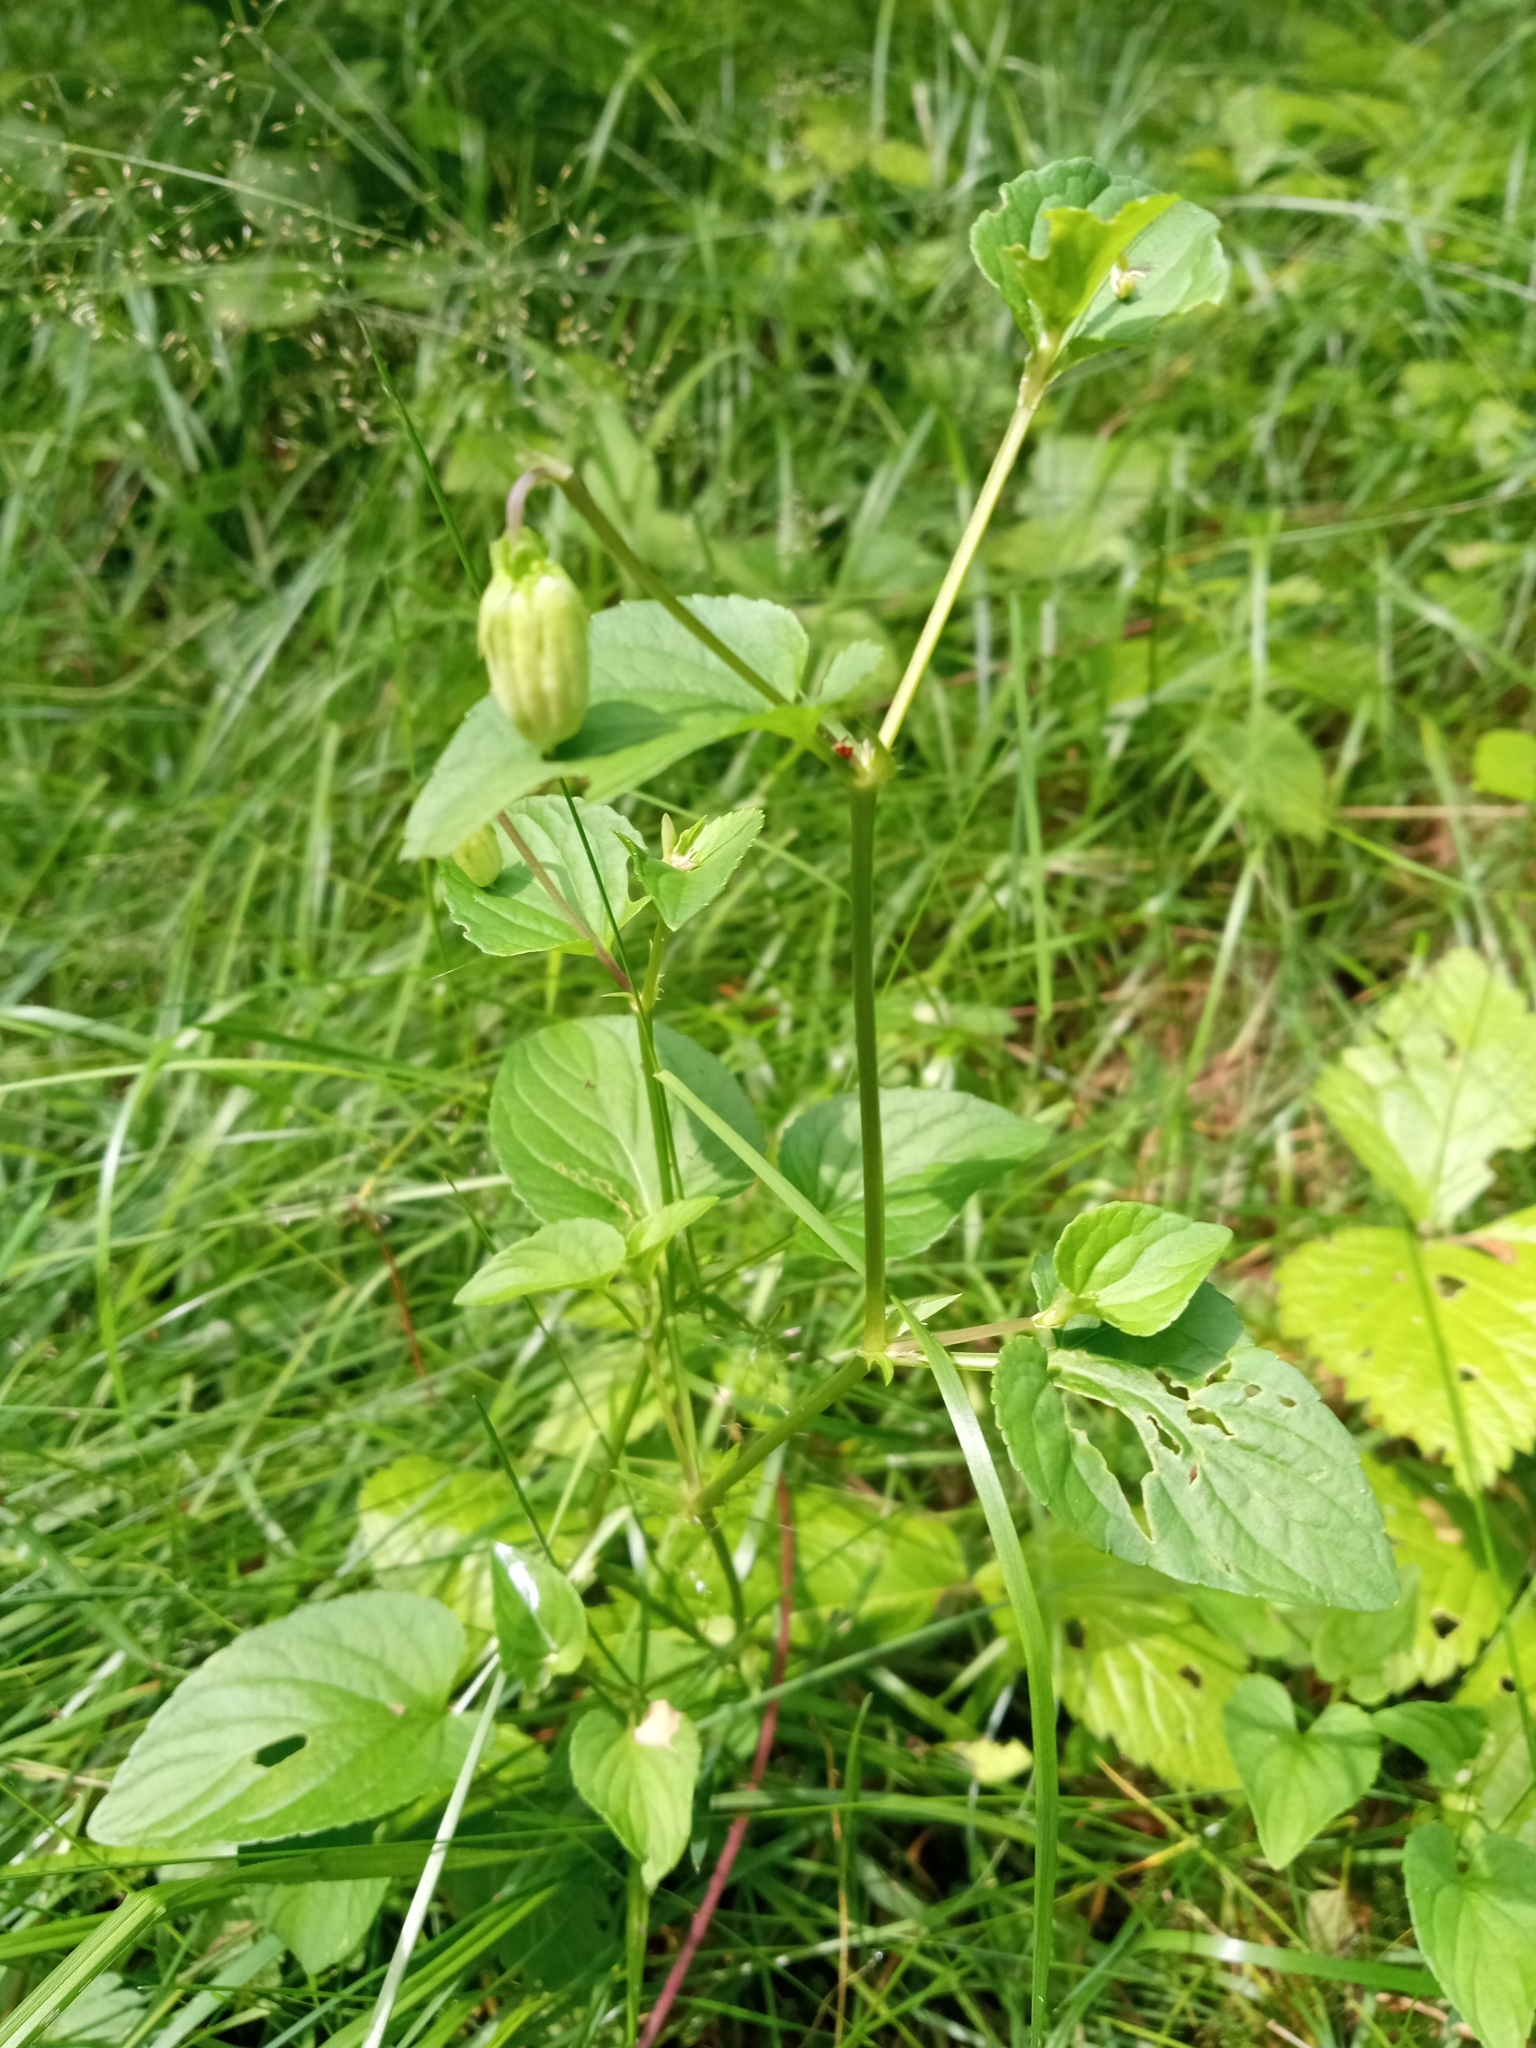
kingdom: Plantae
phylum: Tracheophyta
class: Magnoliopsida
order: Malpighiales
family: Violaceae
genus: Viola
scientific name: Viola canina
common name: Heath dog-violet
